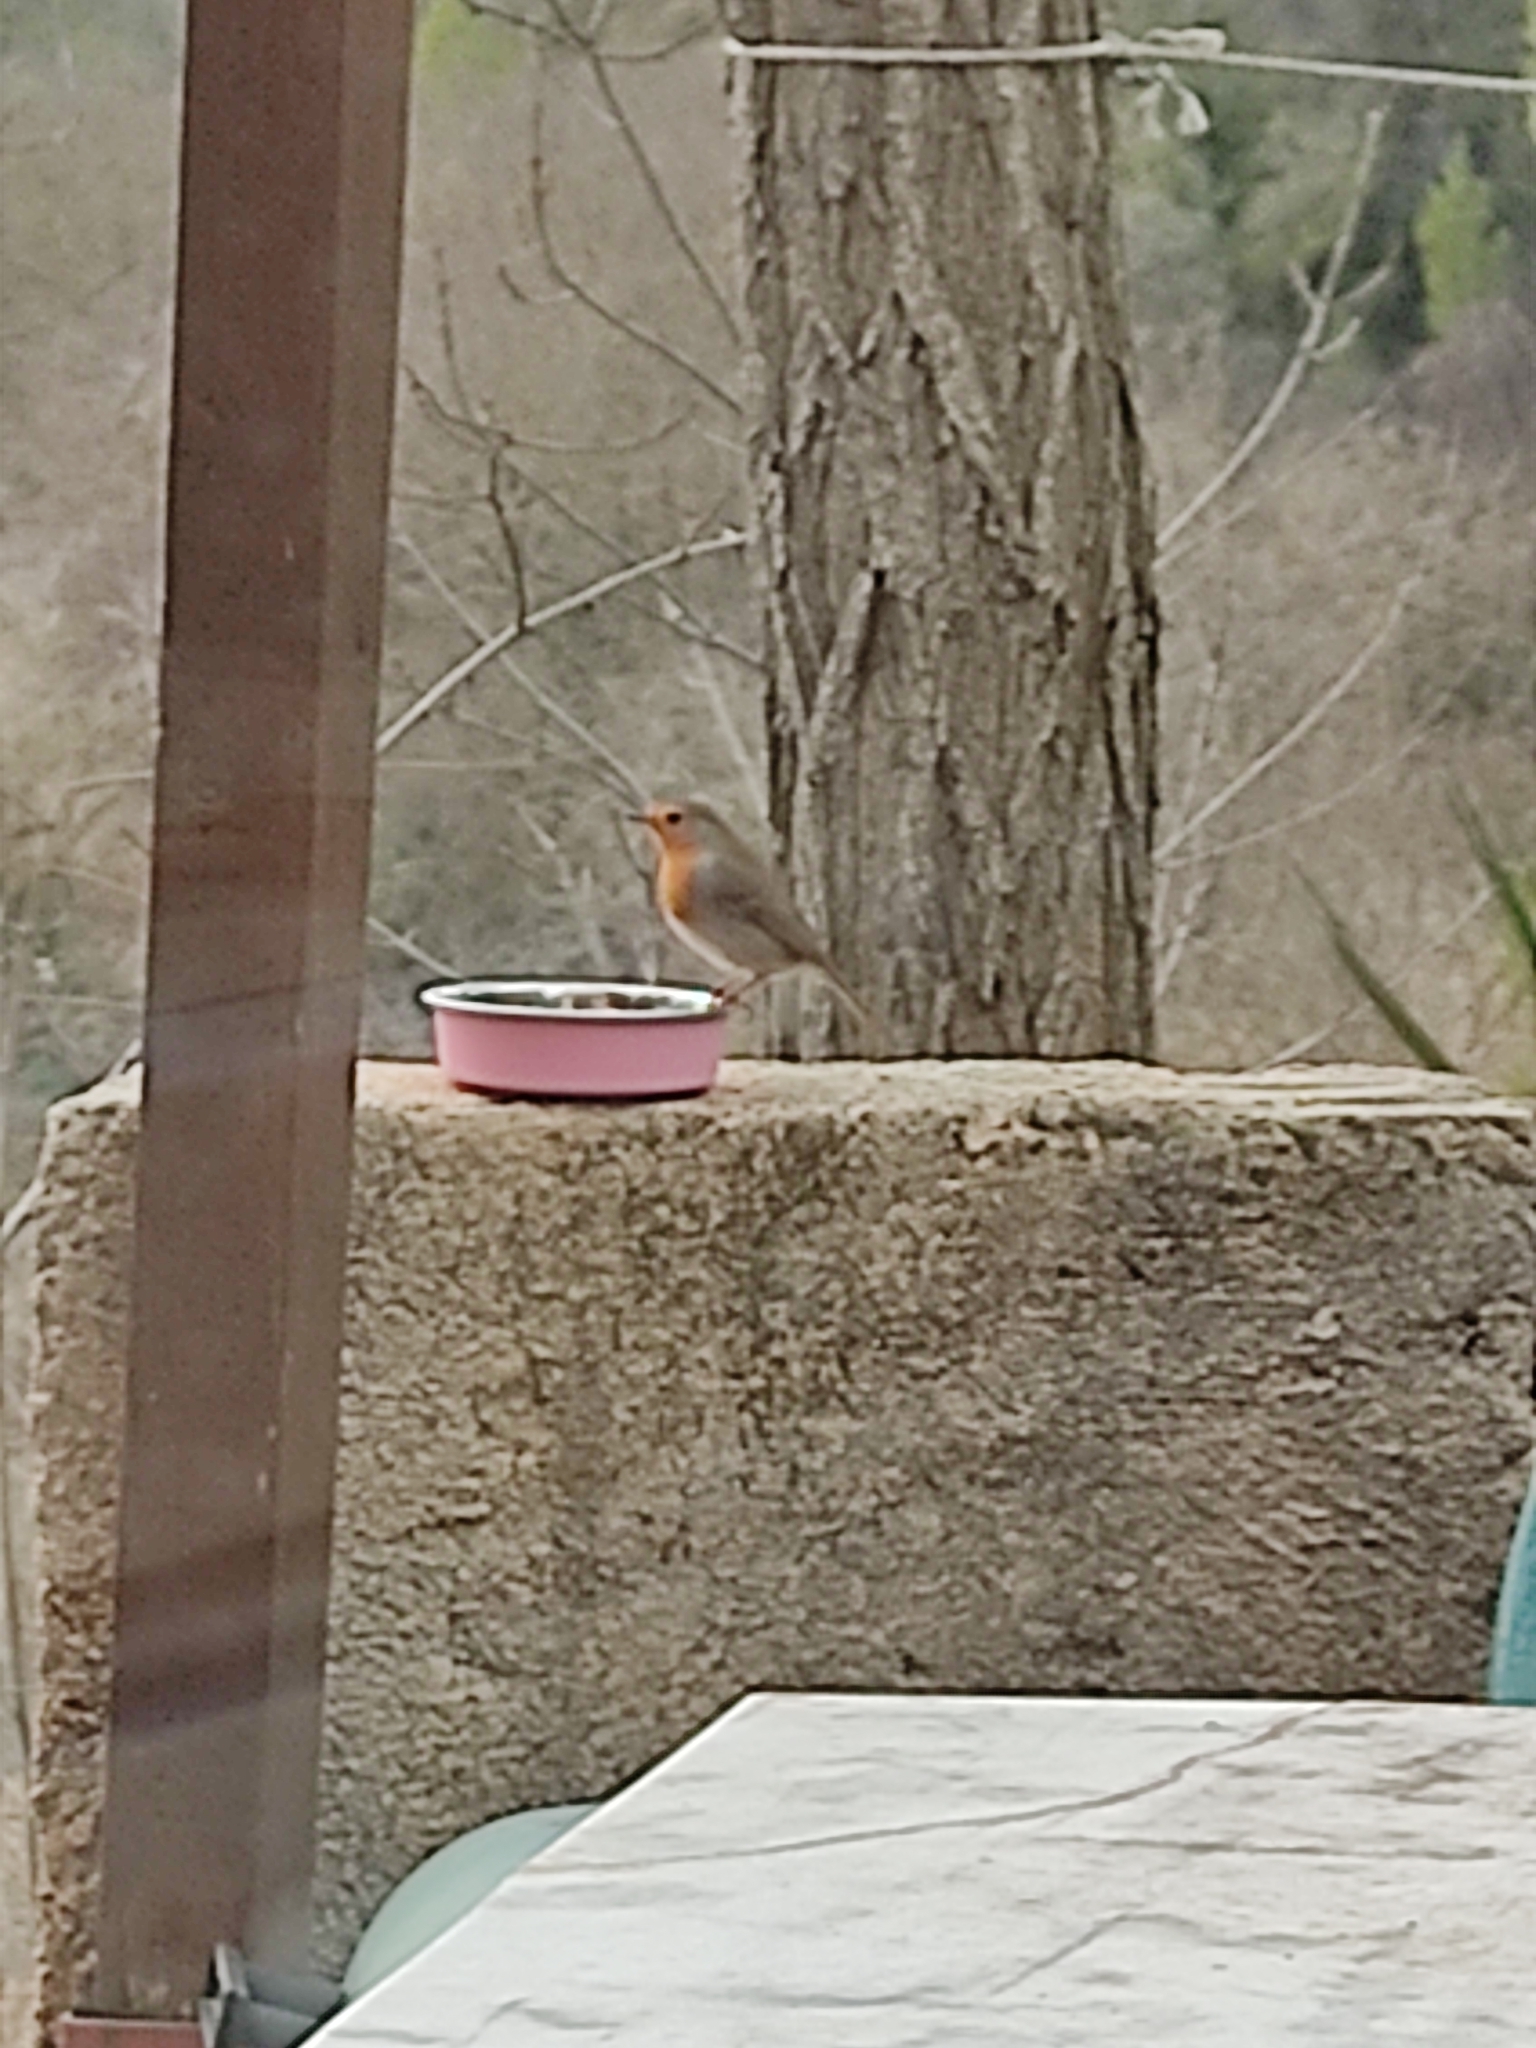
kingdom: Animalia
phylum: Chordata
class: Aves
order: Passeriformes
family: Muscicapidae
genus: Erithacus
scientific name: Erithacus rubecula
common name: European robin
